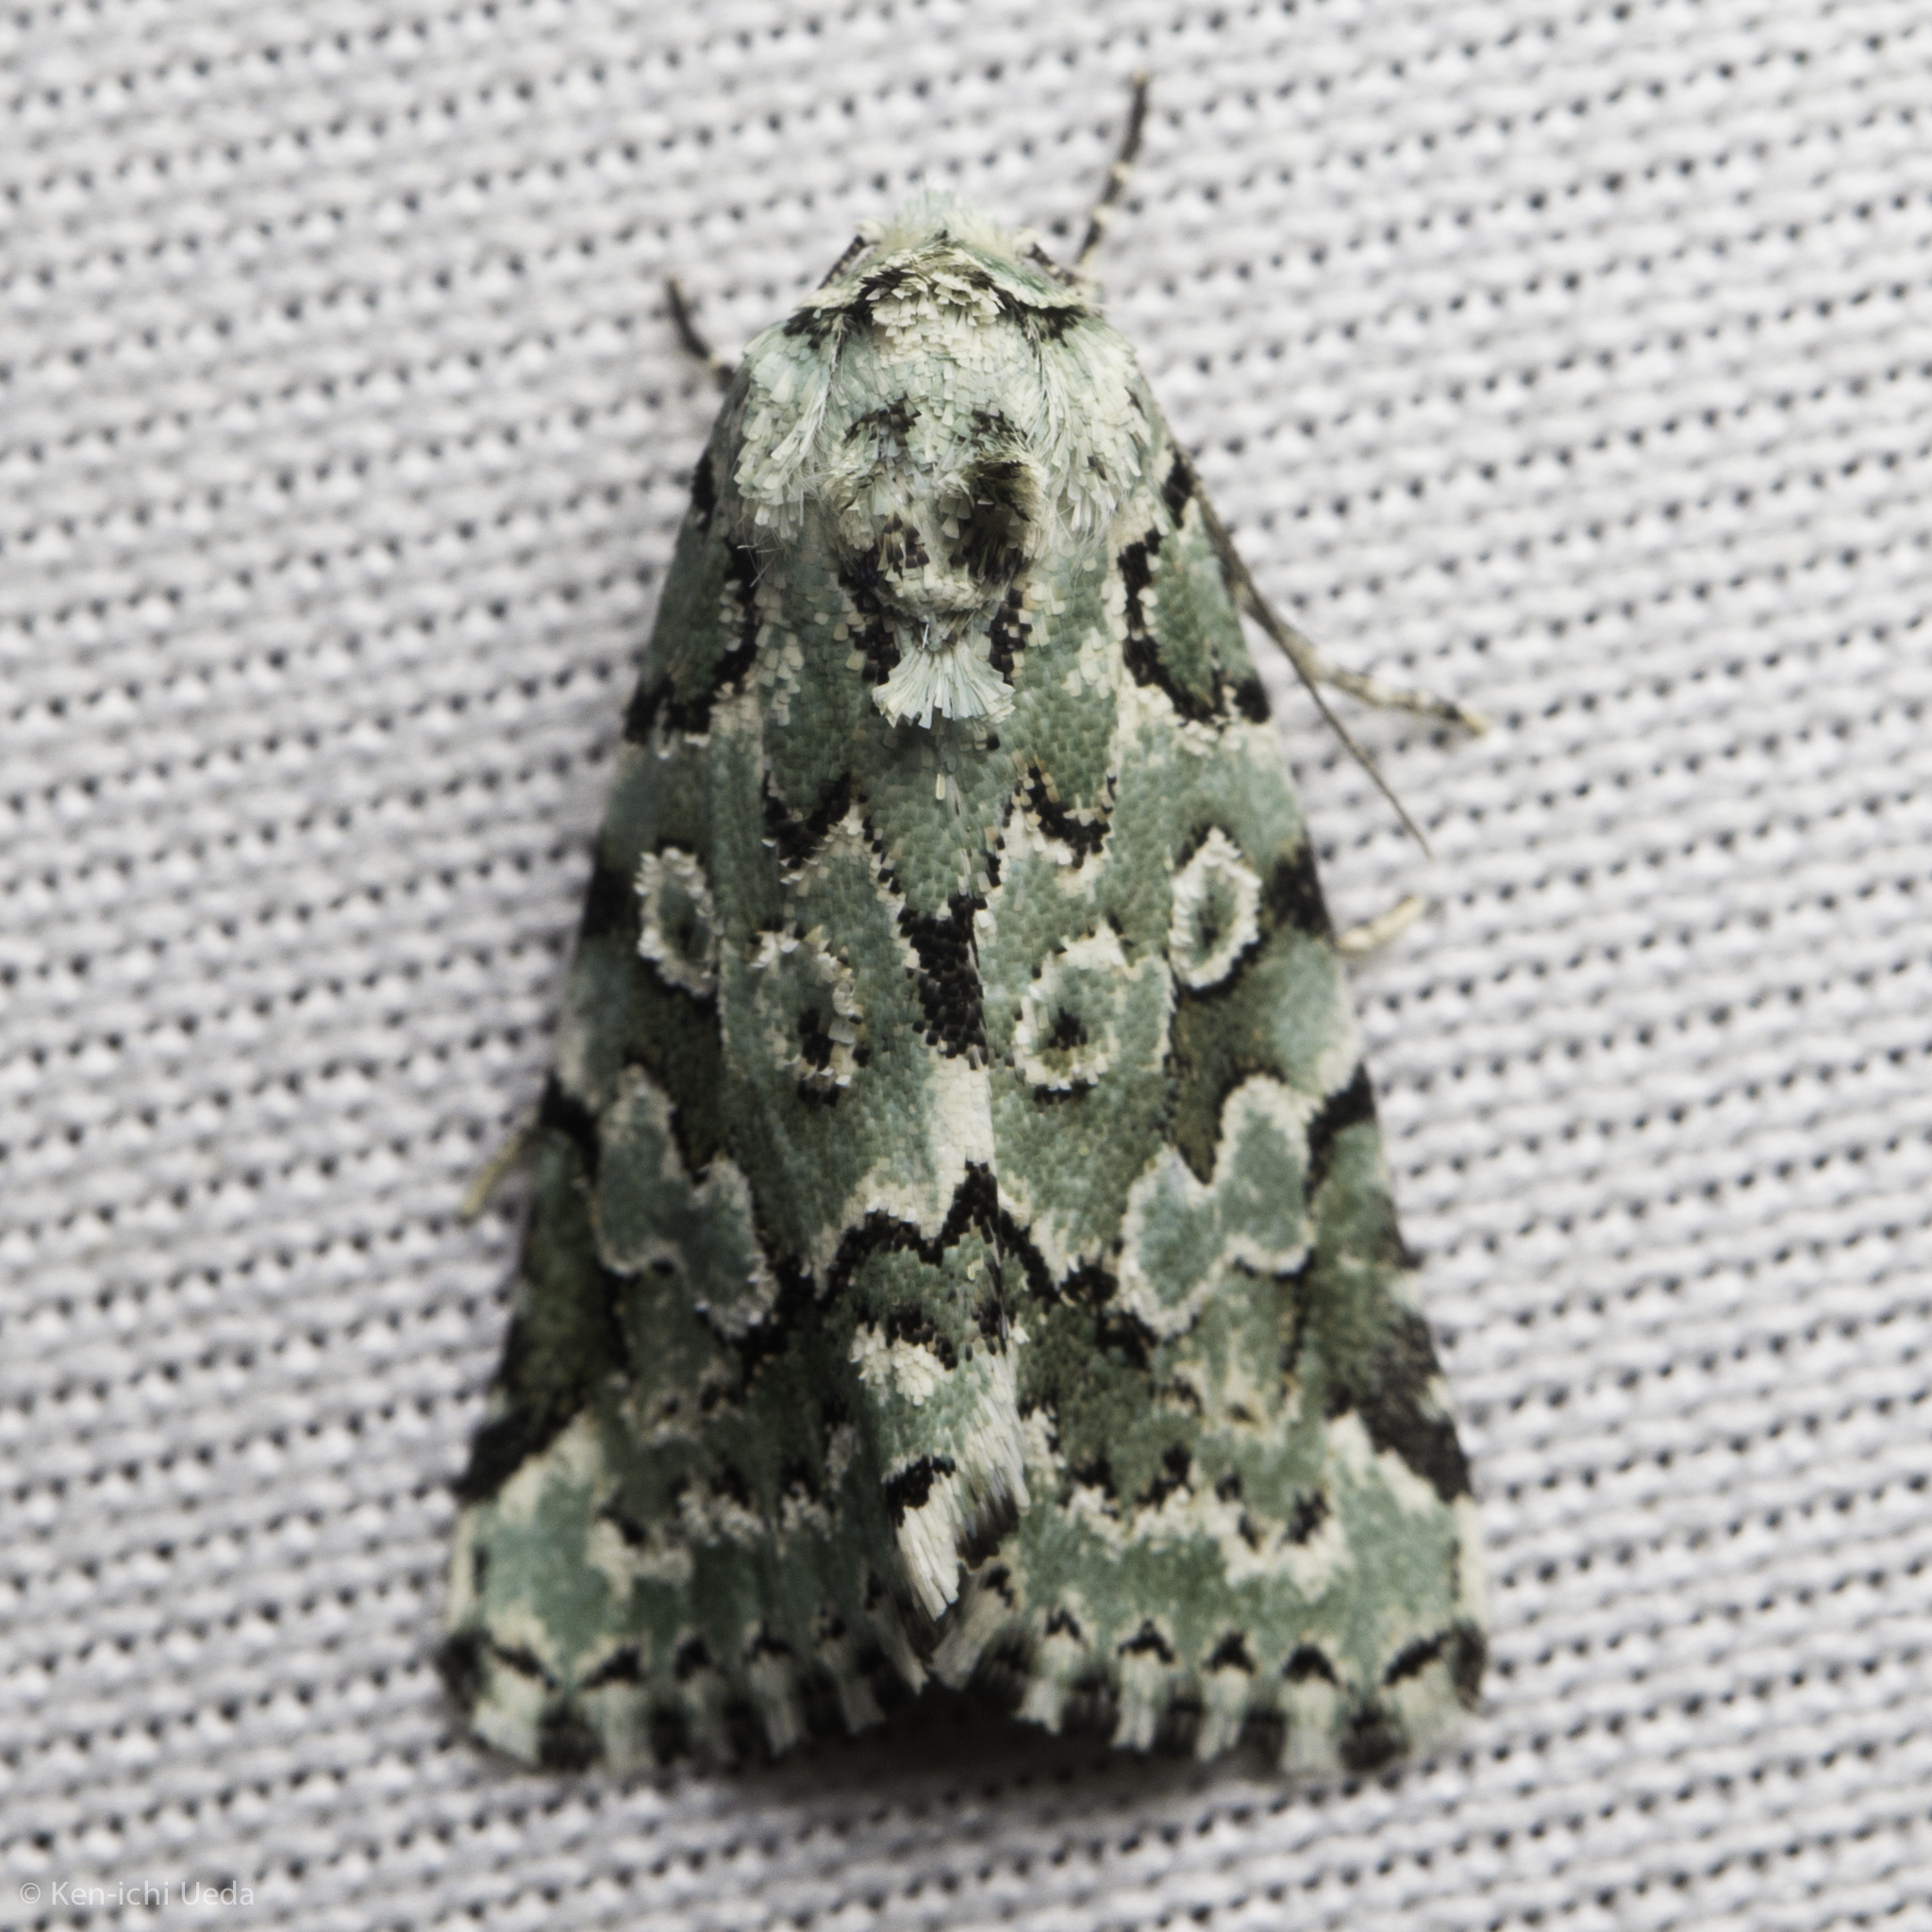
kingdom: Animalia
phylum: Arthropoda
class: Insecta
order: Lepidoptera
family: Noctuidae
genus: Bryolymnia
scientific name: Bryolymnia viridata
